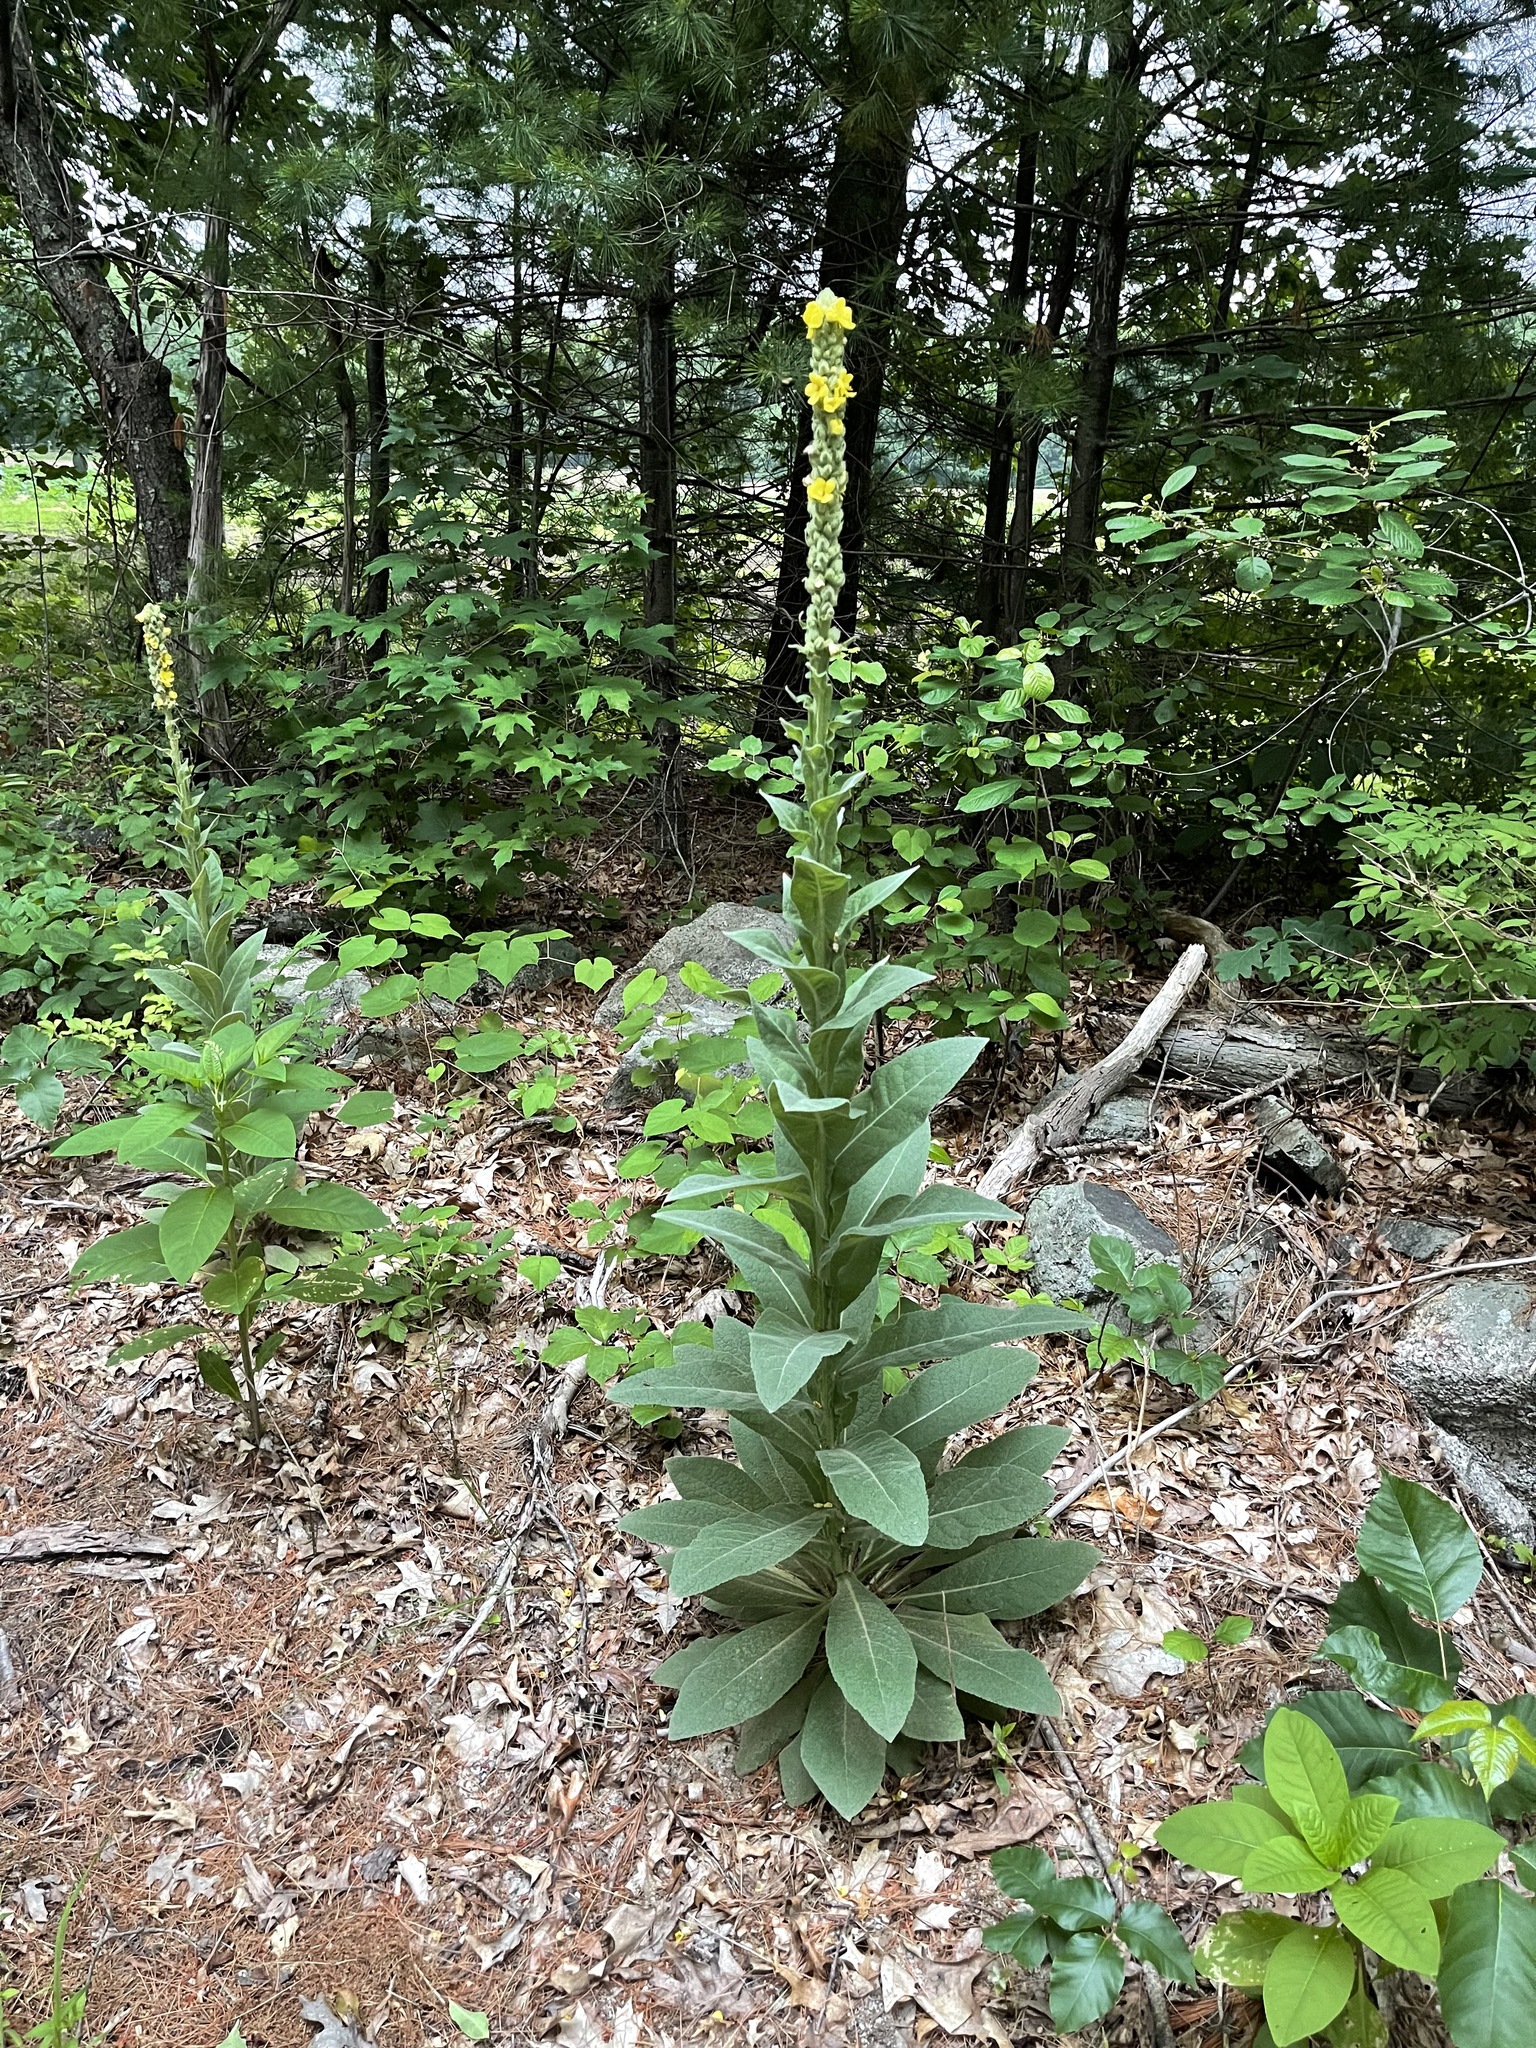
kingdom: Plantae
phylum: Tracheophyta
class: Magnoliopsida
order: Lamiales
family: Scrophulariaceae
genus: Verbascum
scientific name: Verbascum thapsus
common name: Common mullein
